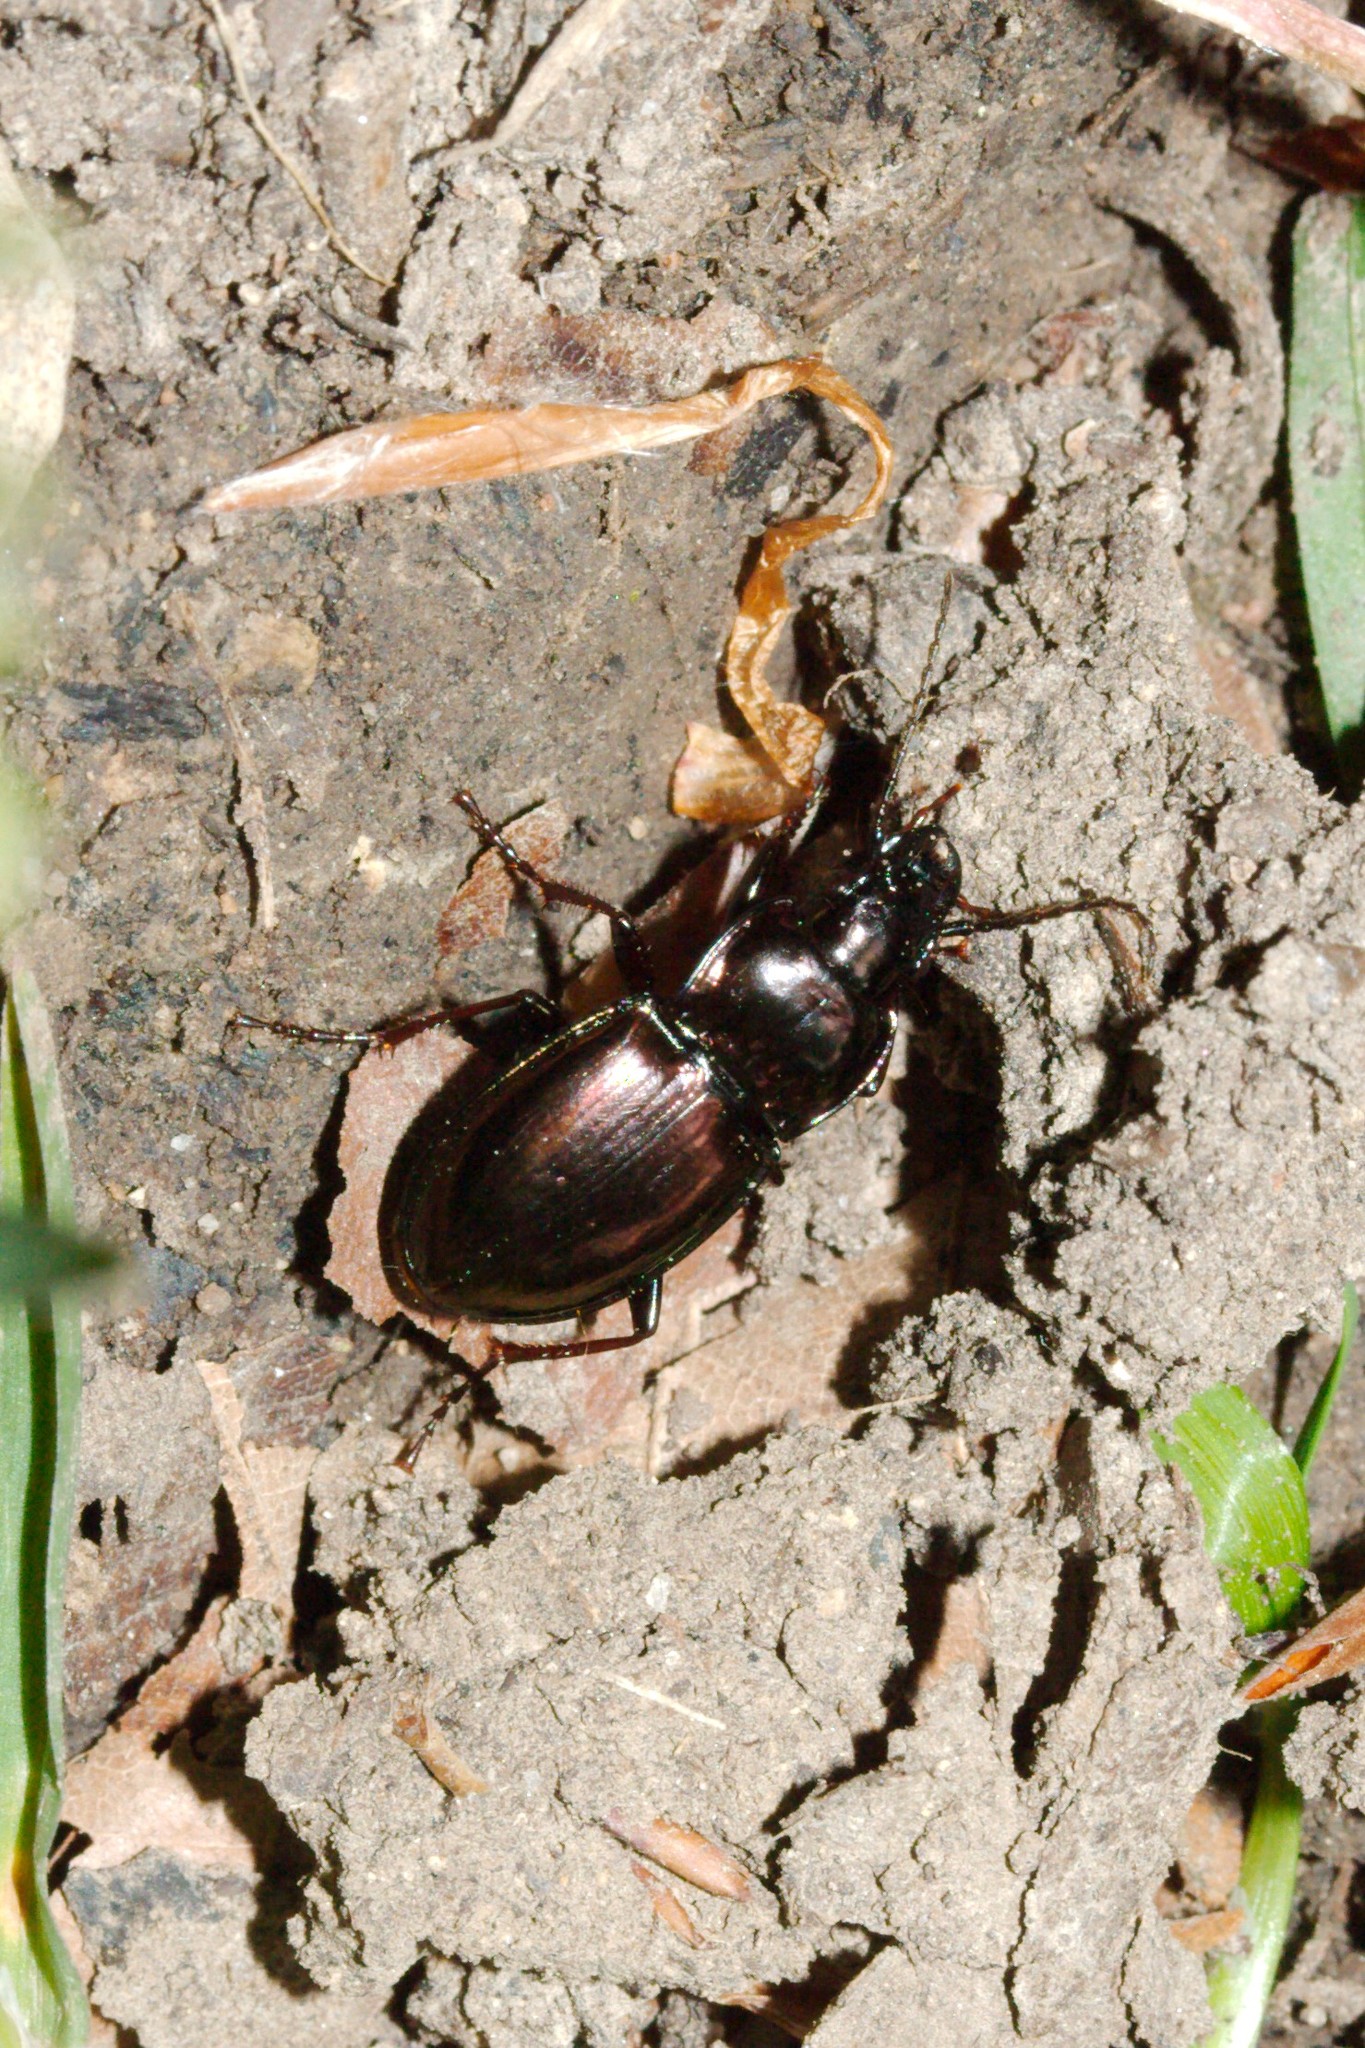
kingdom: Animalia
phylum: Arthropoda
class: Insecta
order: Coleoptera
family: Carabidae
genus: Pterostichus
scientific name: Pterostichus burmeisteri
